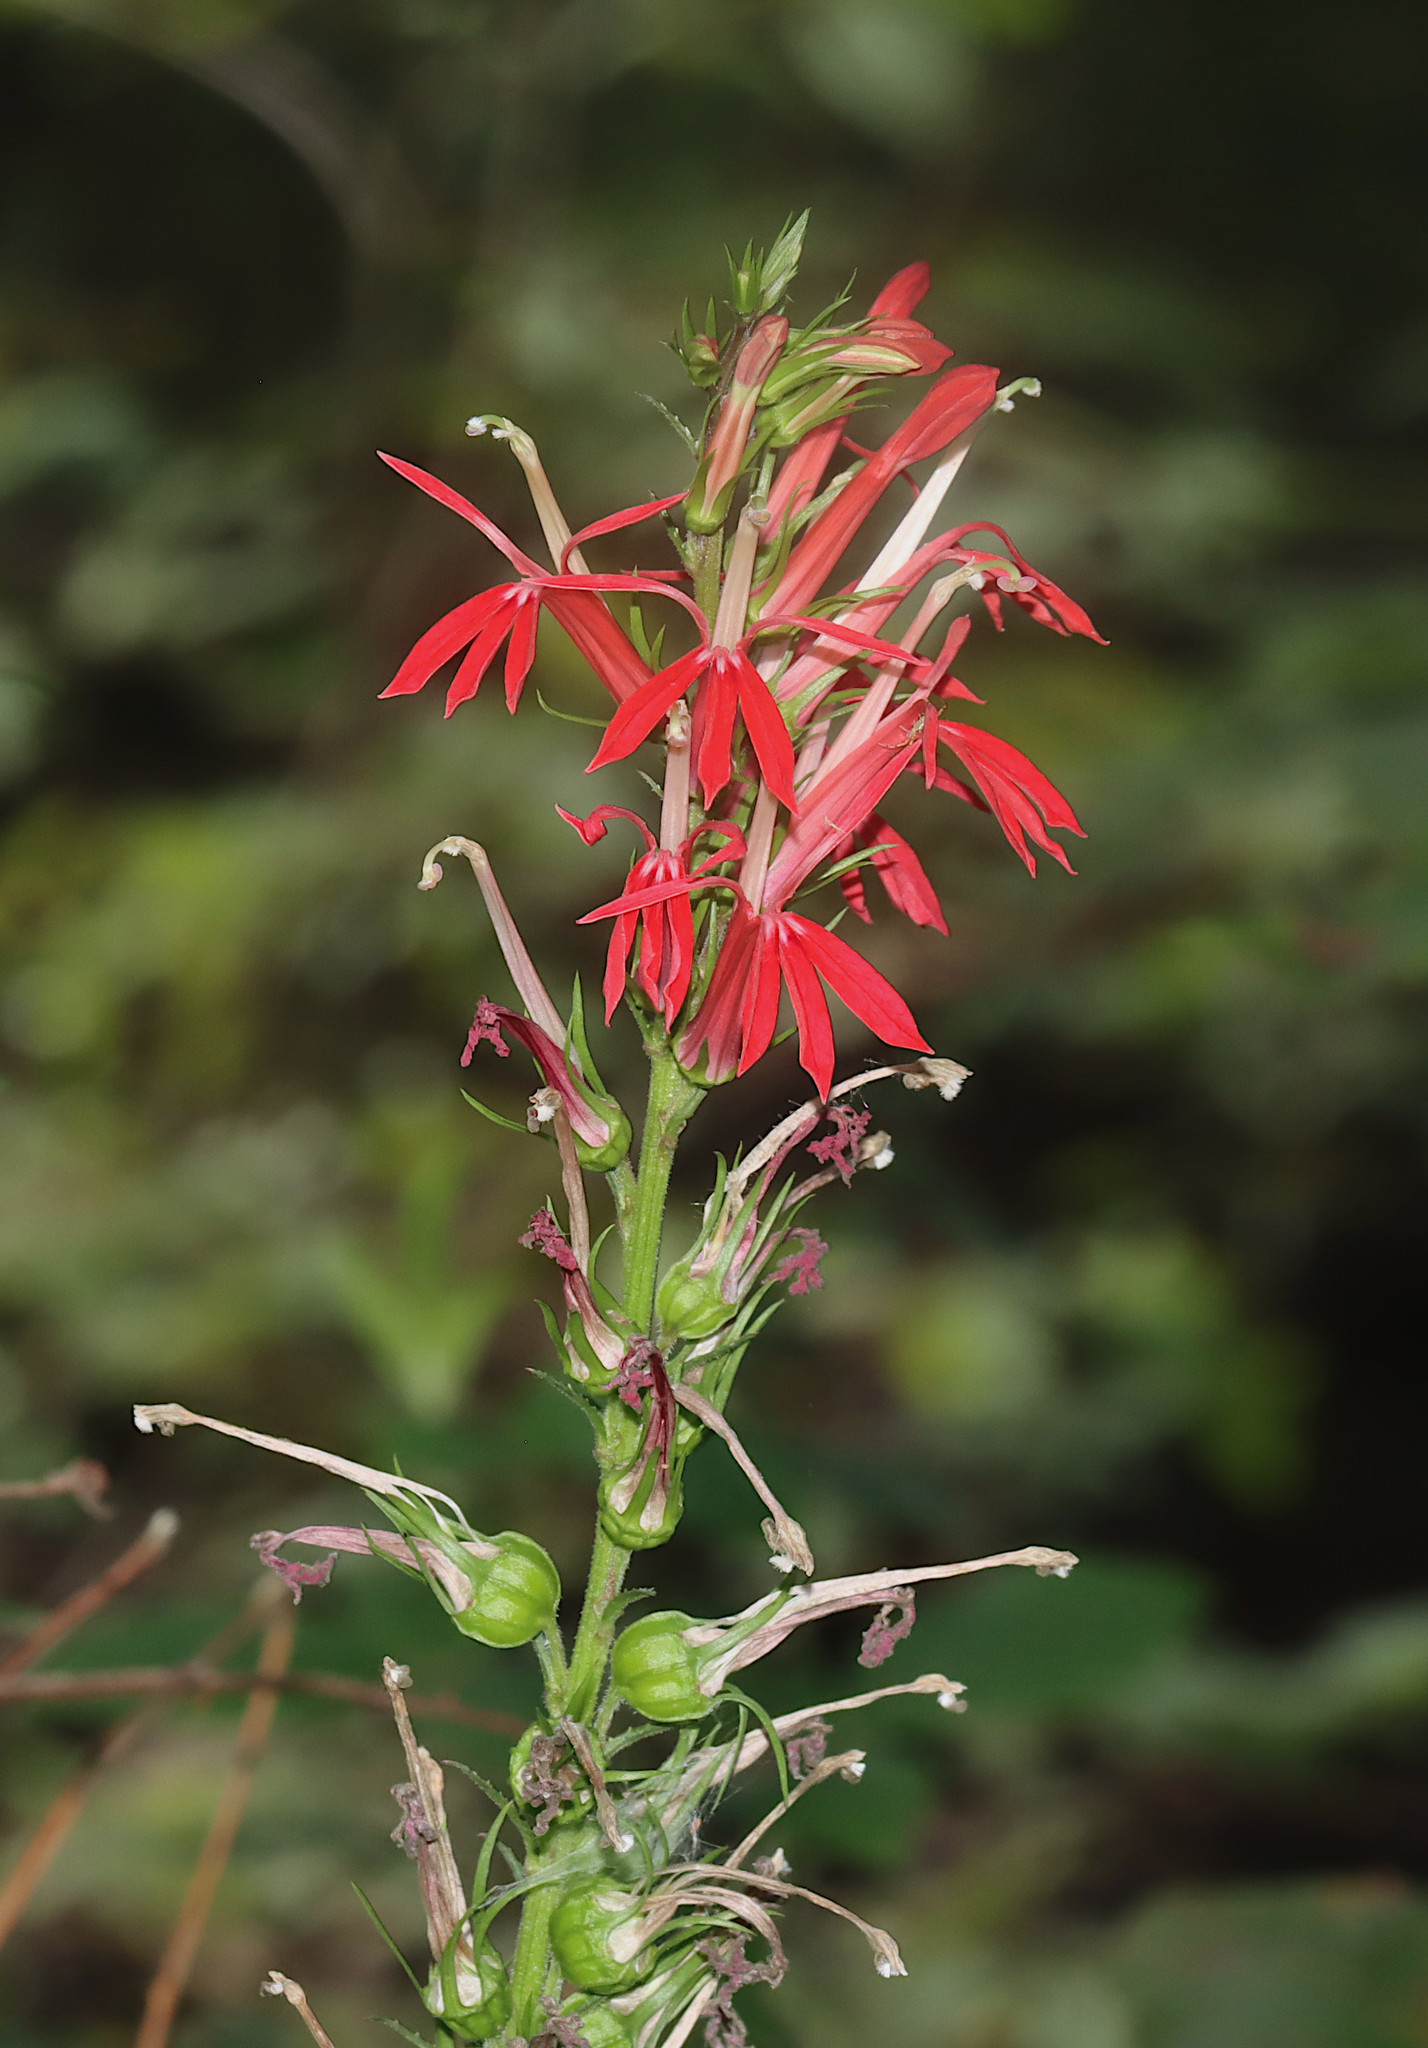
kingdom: Plantae
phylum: Tracheophyta
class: Magnoliopsida
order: Asterales
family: Campanulaceae
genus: Lobelia
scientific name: Lobelia cardinalis
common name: Cardinal flower
